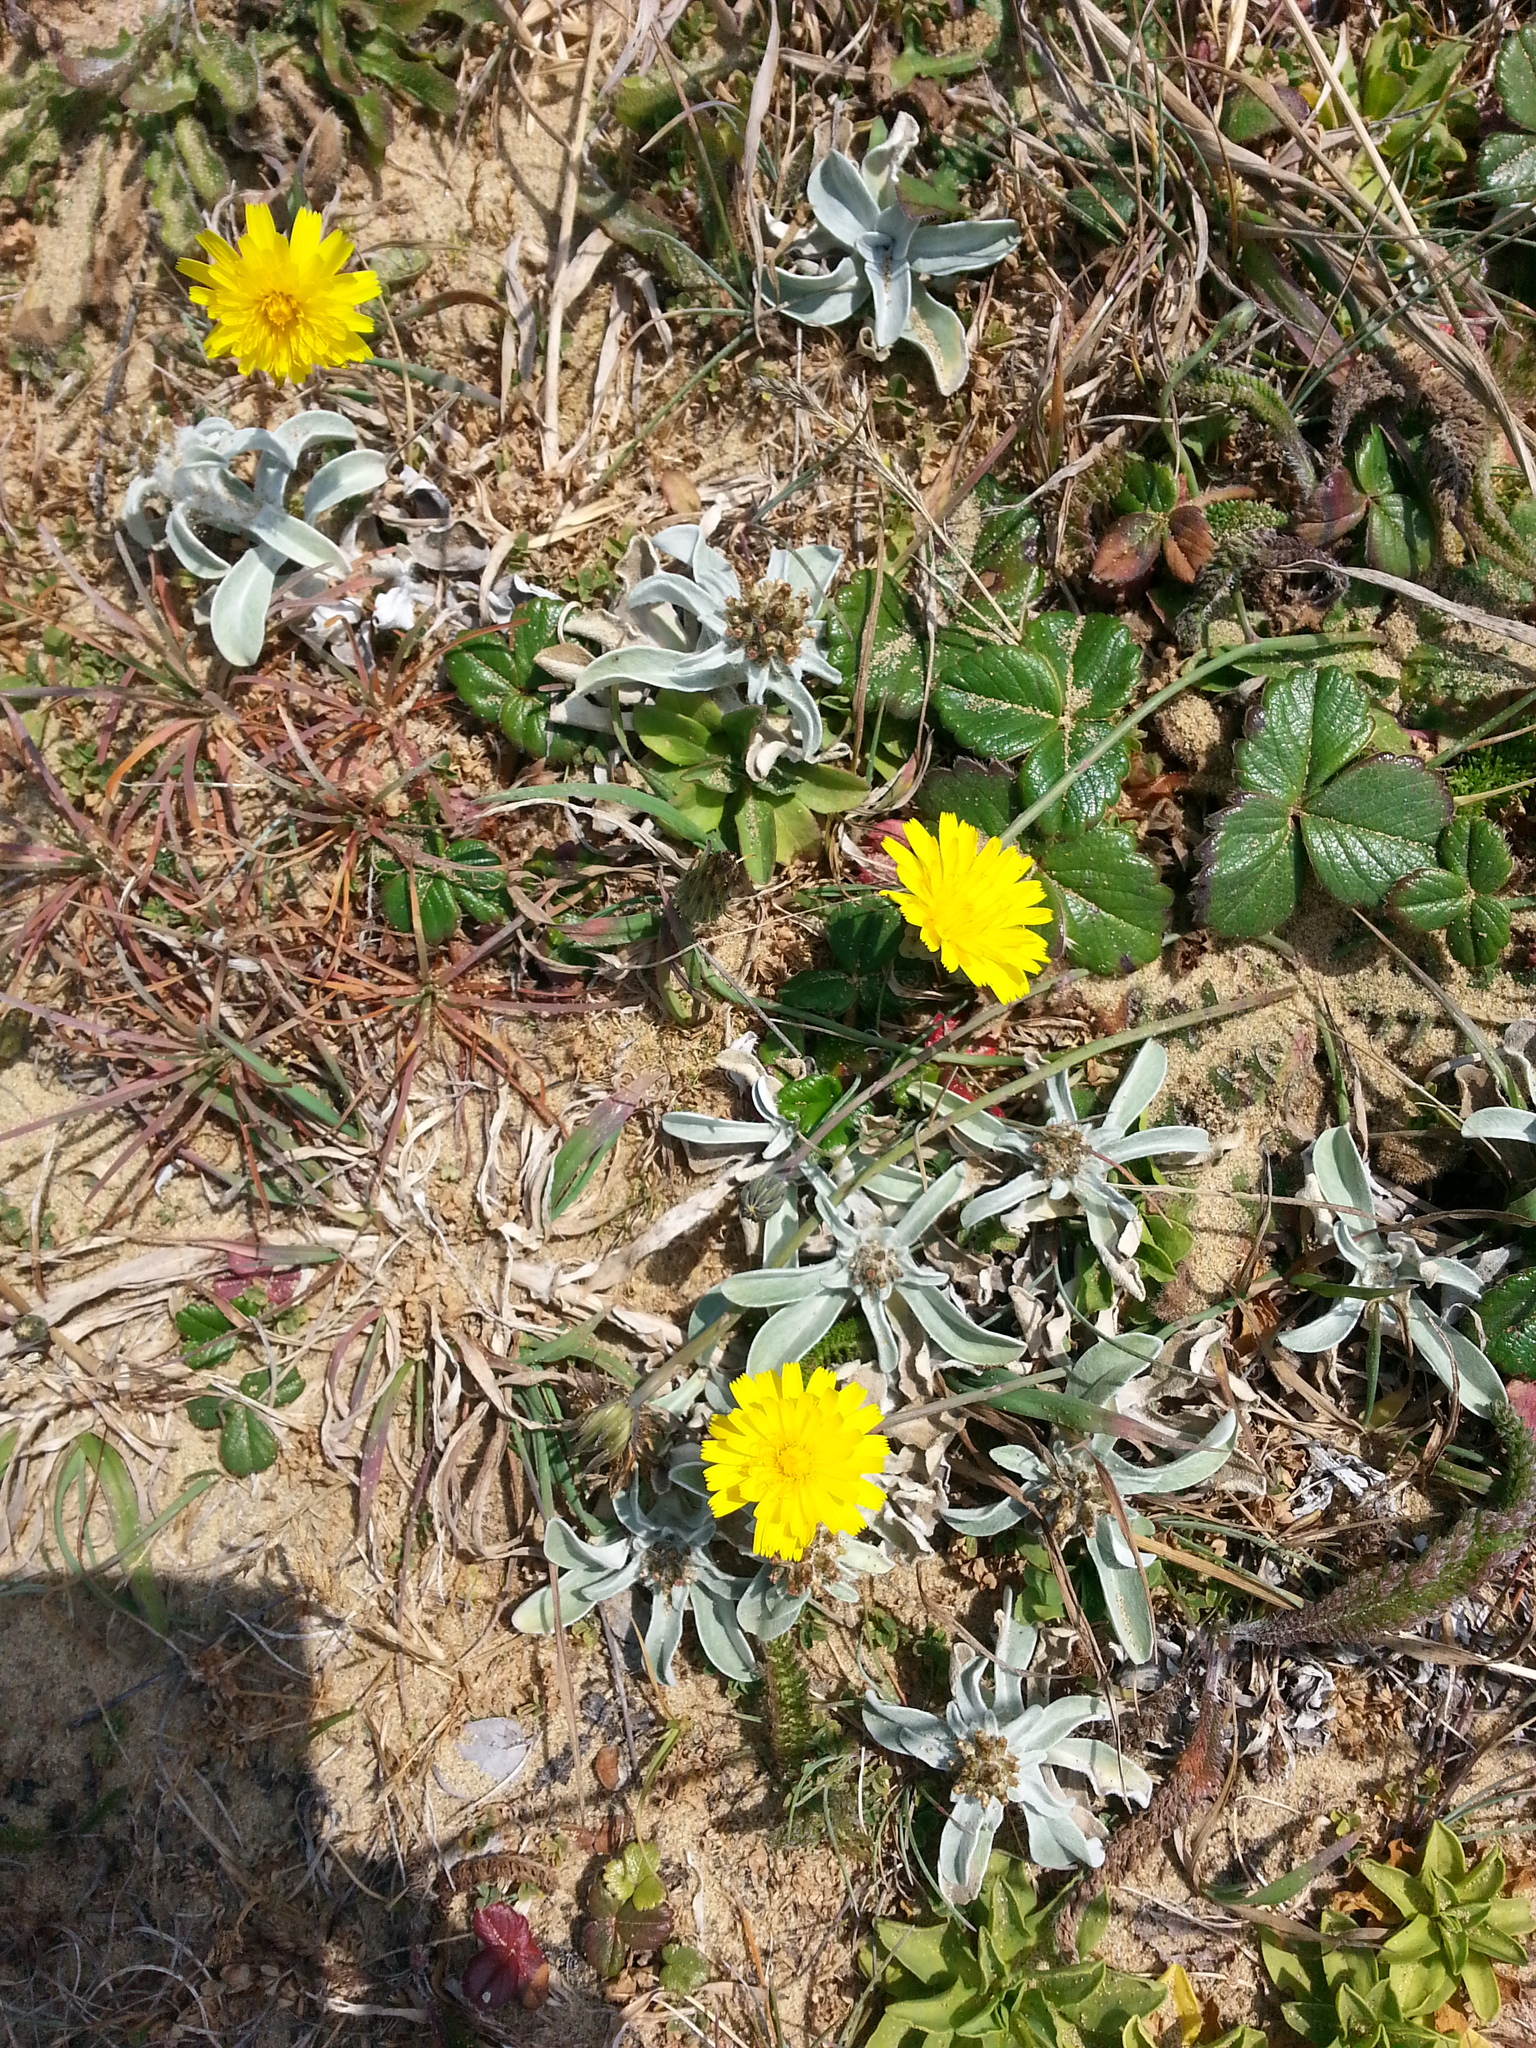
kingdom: Plantae
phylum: Tracheophyta
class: Magnoliopsida
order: Rosales
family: Rosaceae
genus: Fragaria
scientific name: Fragaria chiloensis
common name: Beach strawberry
